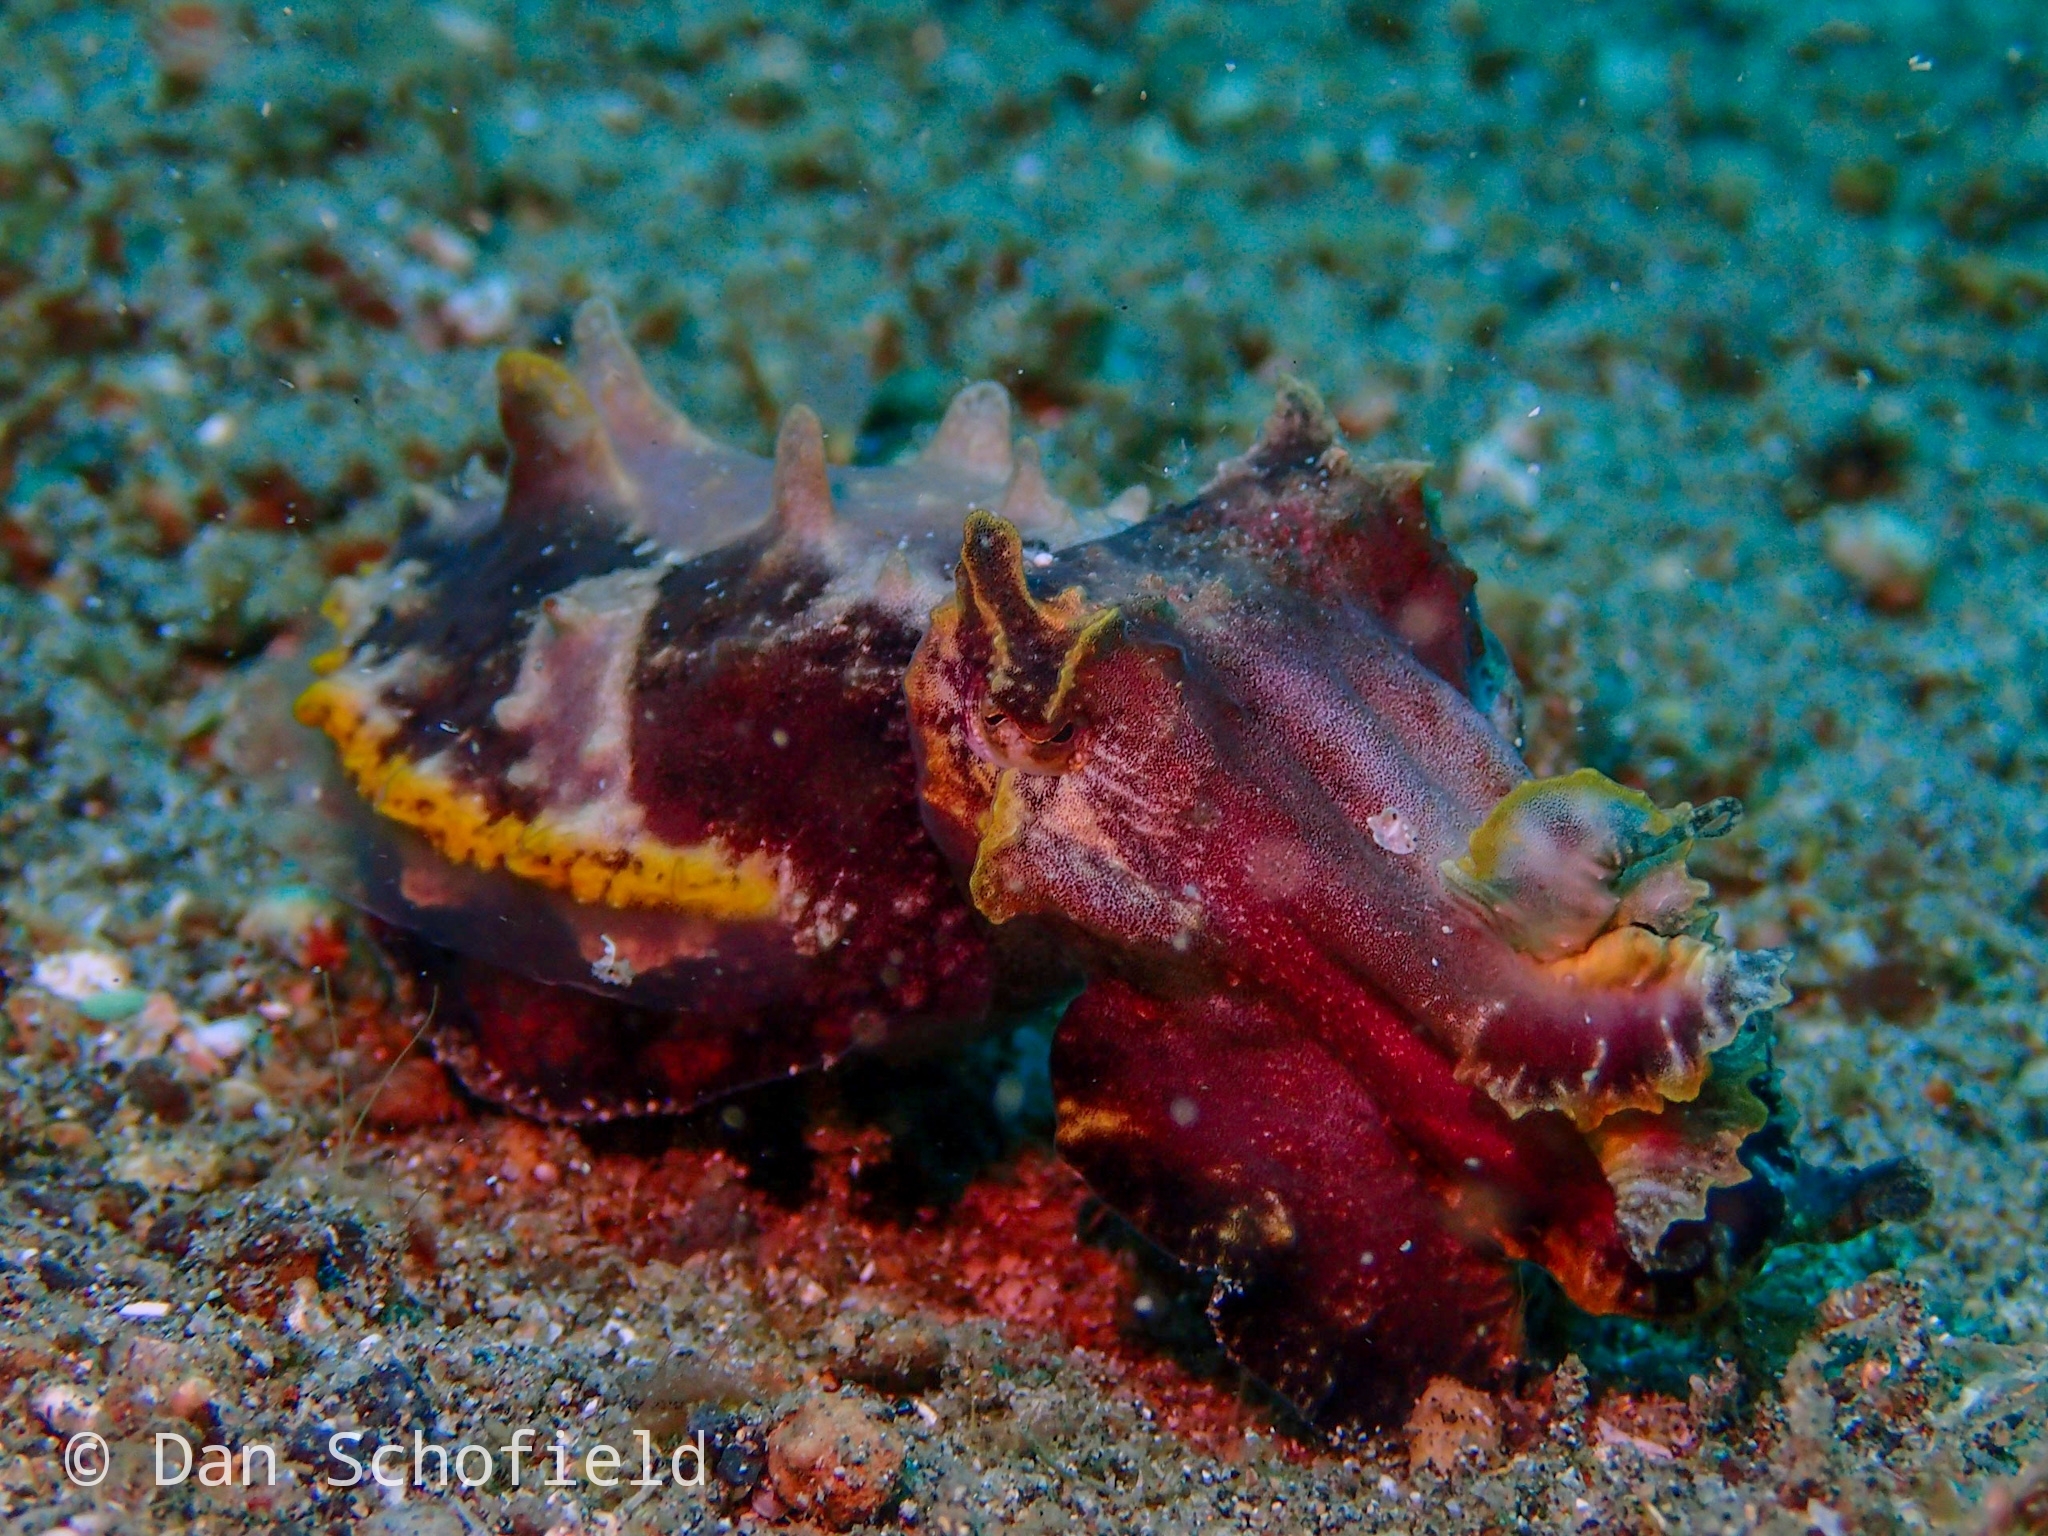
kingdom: Animalia
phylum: Mollusca
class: Cephalopoda
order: Sepiida
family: Sepiidae
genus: Ascarosepion
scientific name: Ascarosepion pfefferi
